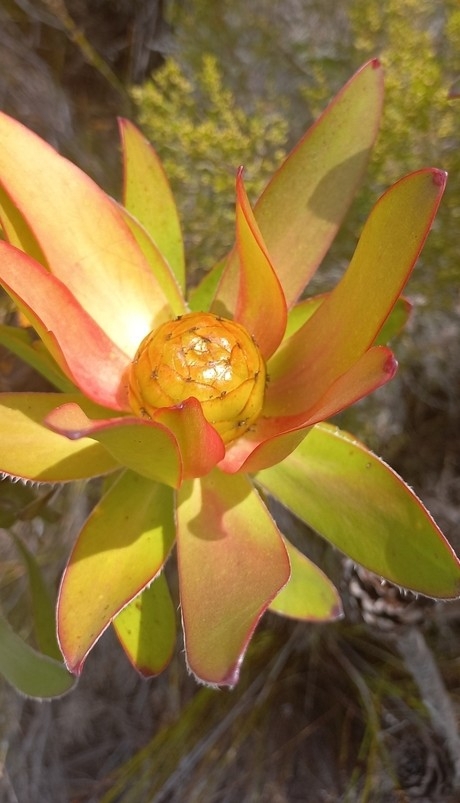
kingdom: Plantae
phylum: Tracheophyta
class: Magnoliopsida
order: Proteales
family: Proteaceae
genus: Leucadendron
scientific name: Leucadendron gandogeri
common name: Broad-leaf conebush
